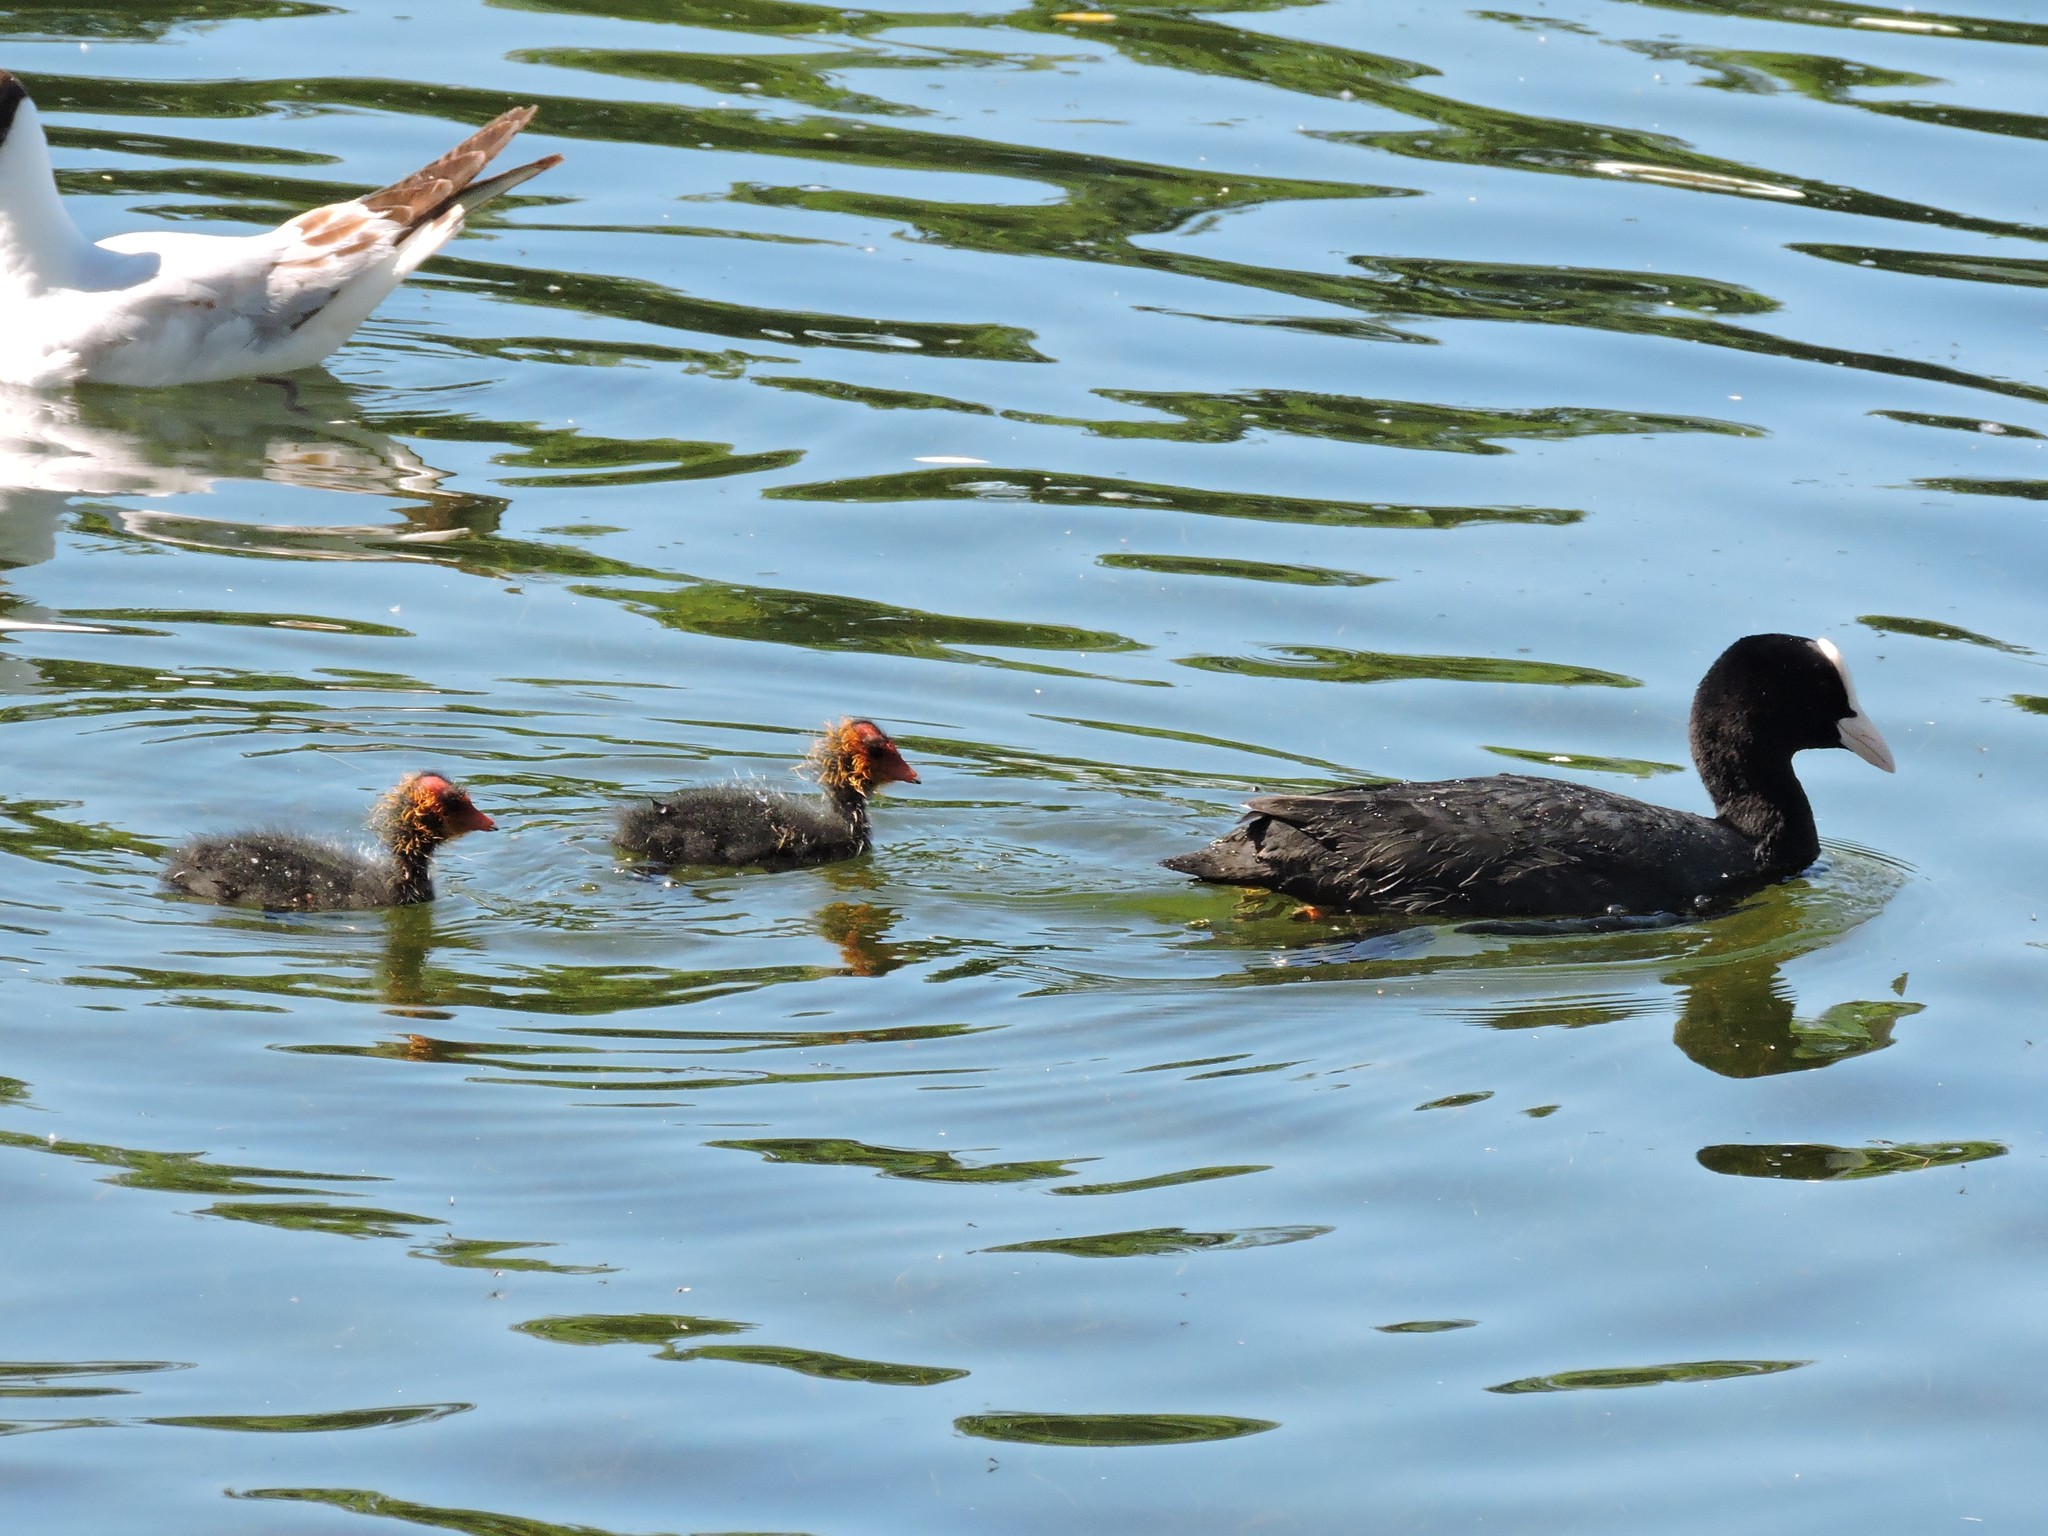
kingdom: Animalia
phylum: Chordata
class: Aves
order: Gruiformes
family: Rallidae
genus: Fulica
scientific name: Fulica atra
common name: Eurasian coot
